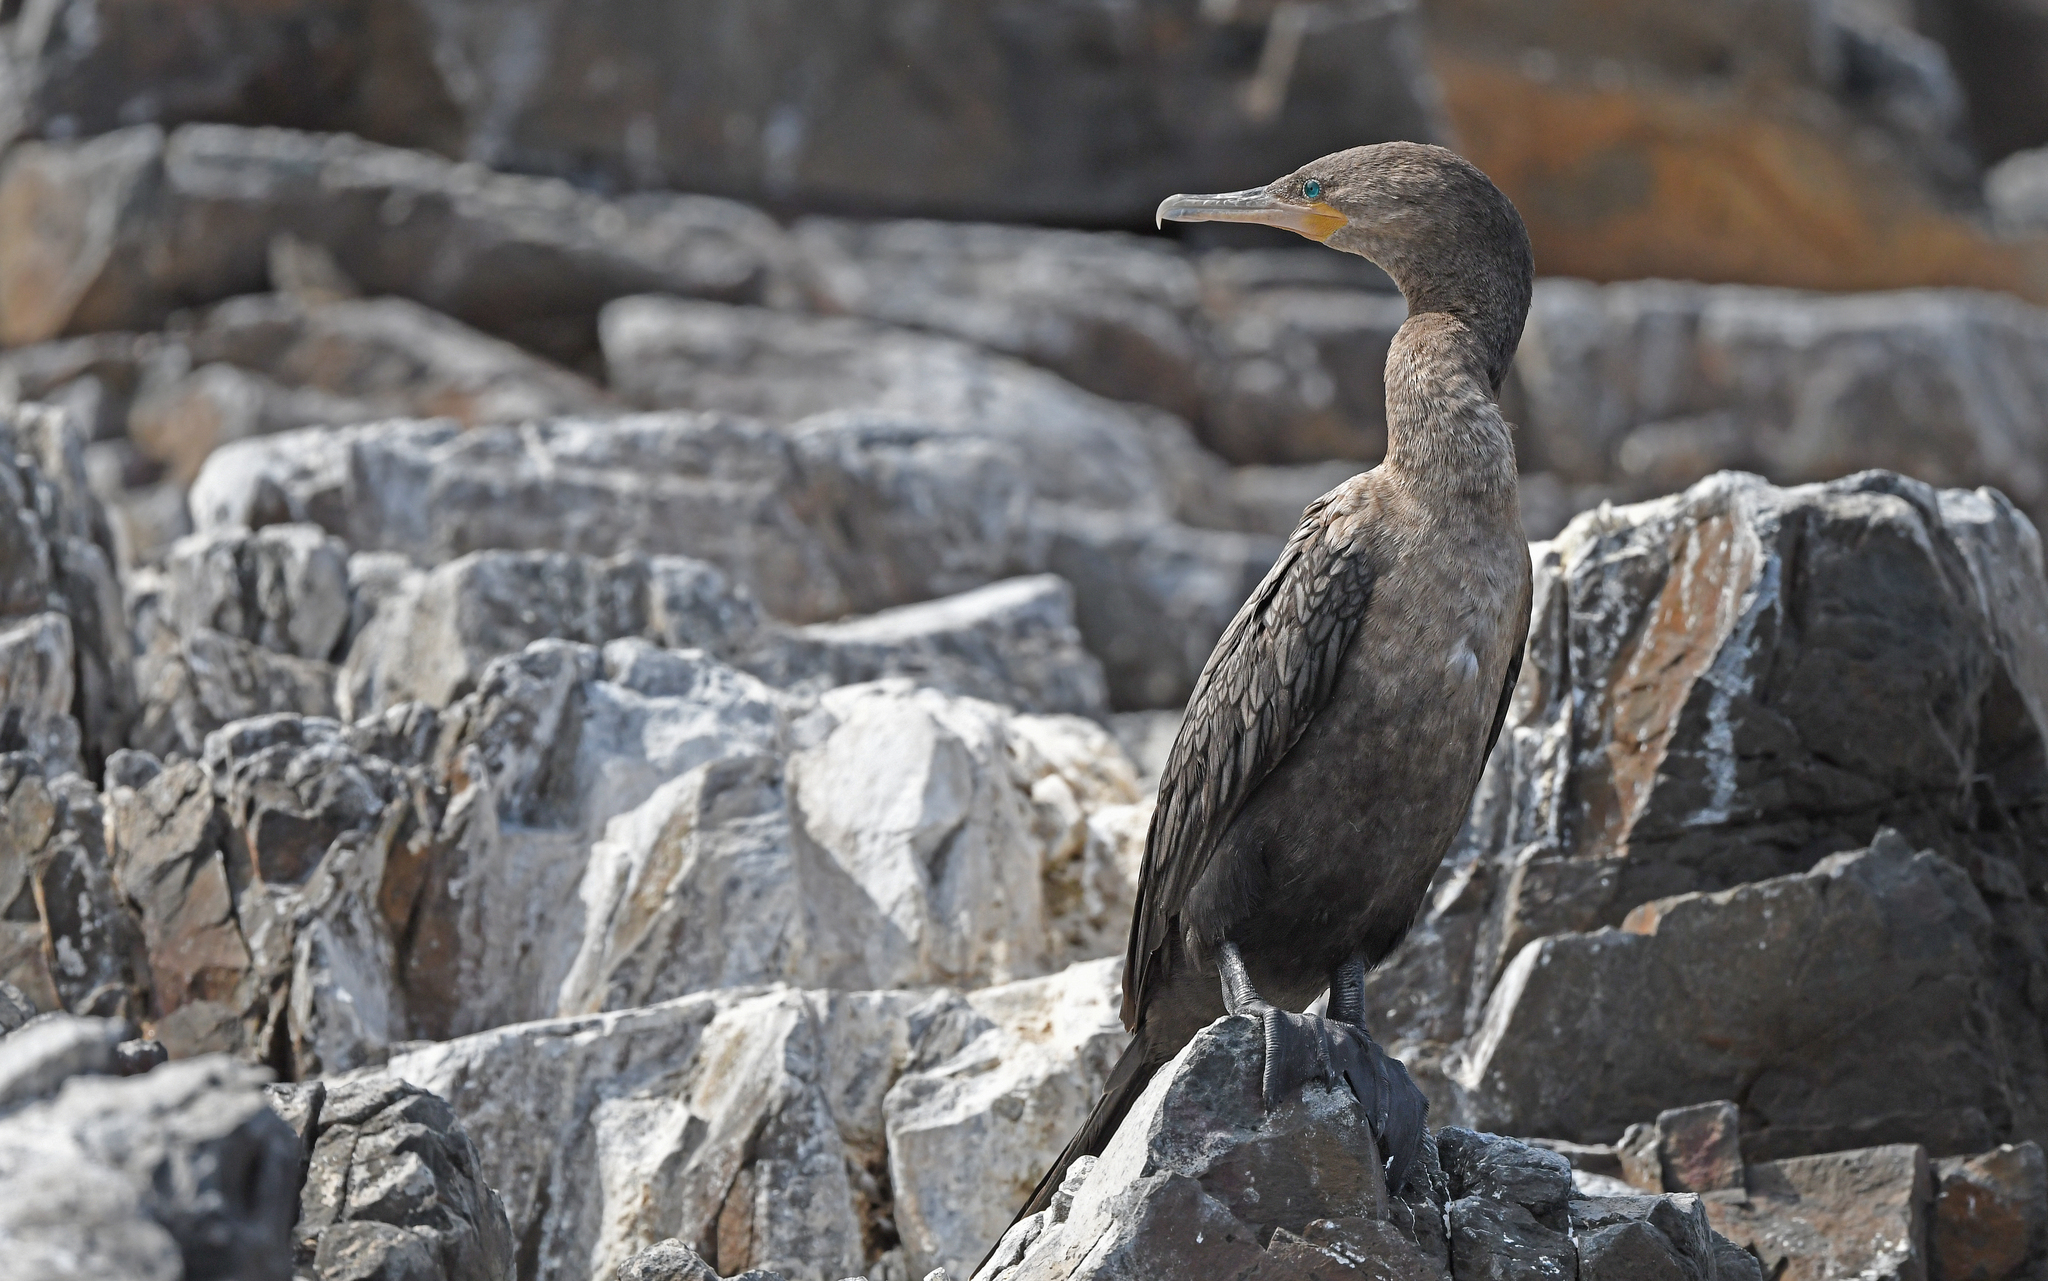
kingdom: Animalia
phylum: Chordata
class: Aves
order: Suliformes
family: Phalacrocoracidae
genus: Phalacrocorax
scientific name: Phalacrocorax brasilianus
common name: Neotropic cormorant
